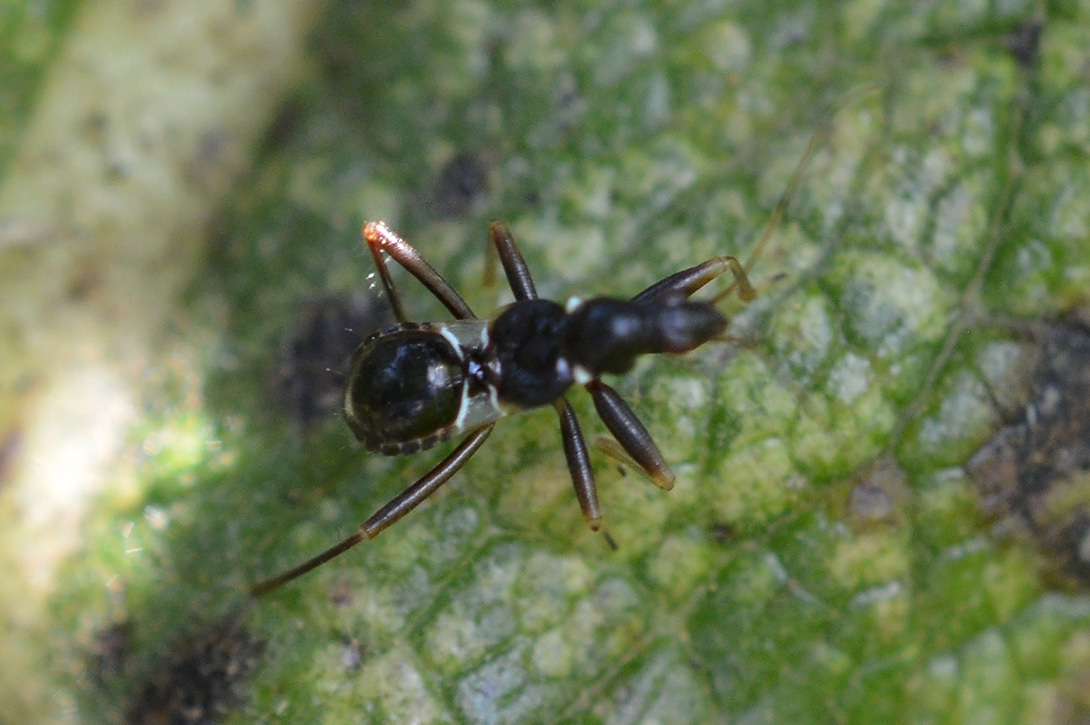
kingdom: Animalia
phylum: Arthropoda
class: Insecta
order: Hemiptera
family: Nabidae
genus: Himacerus
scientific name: Himacerus mirmicoides
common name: Ant damsel bug
